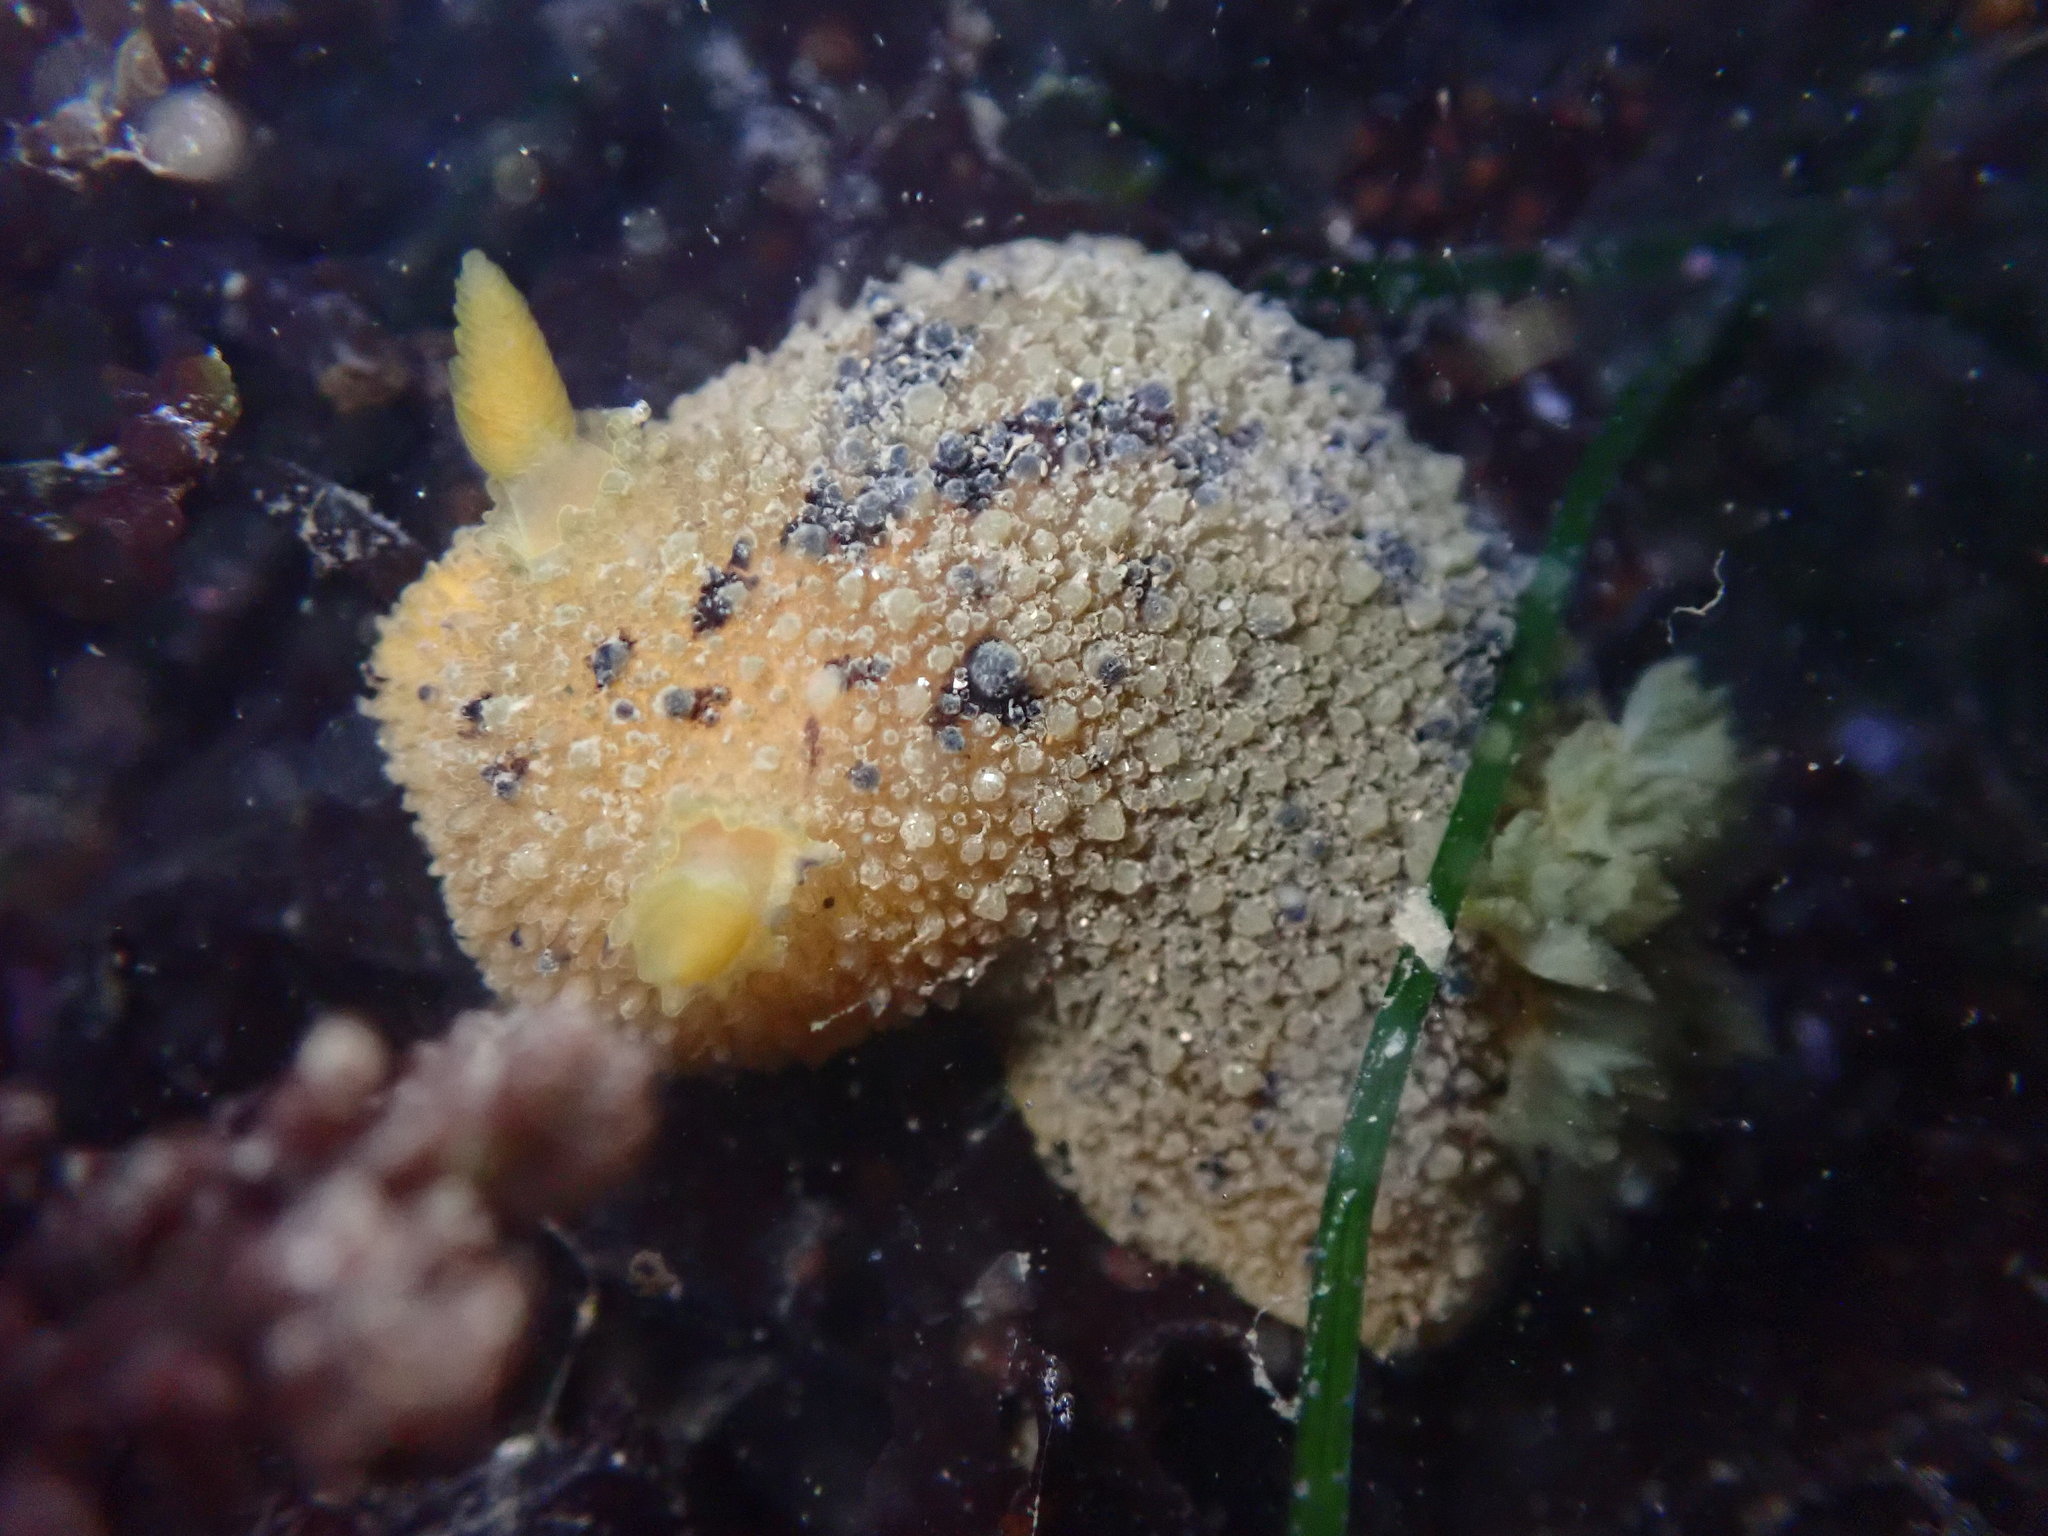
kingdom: Animalia
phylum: Mollusca
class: Gastropoda
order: Nudibranchia
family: Dorididae
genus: Doris
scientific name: Doris montereyensis
